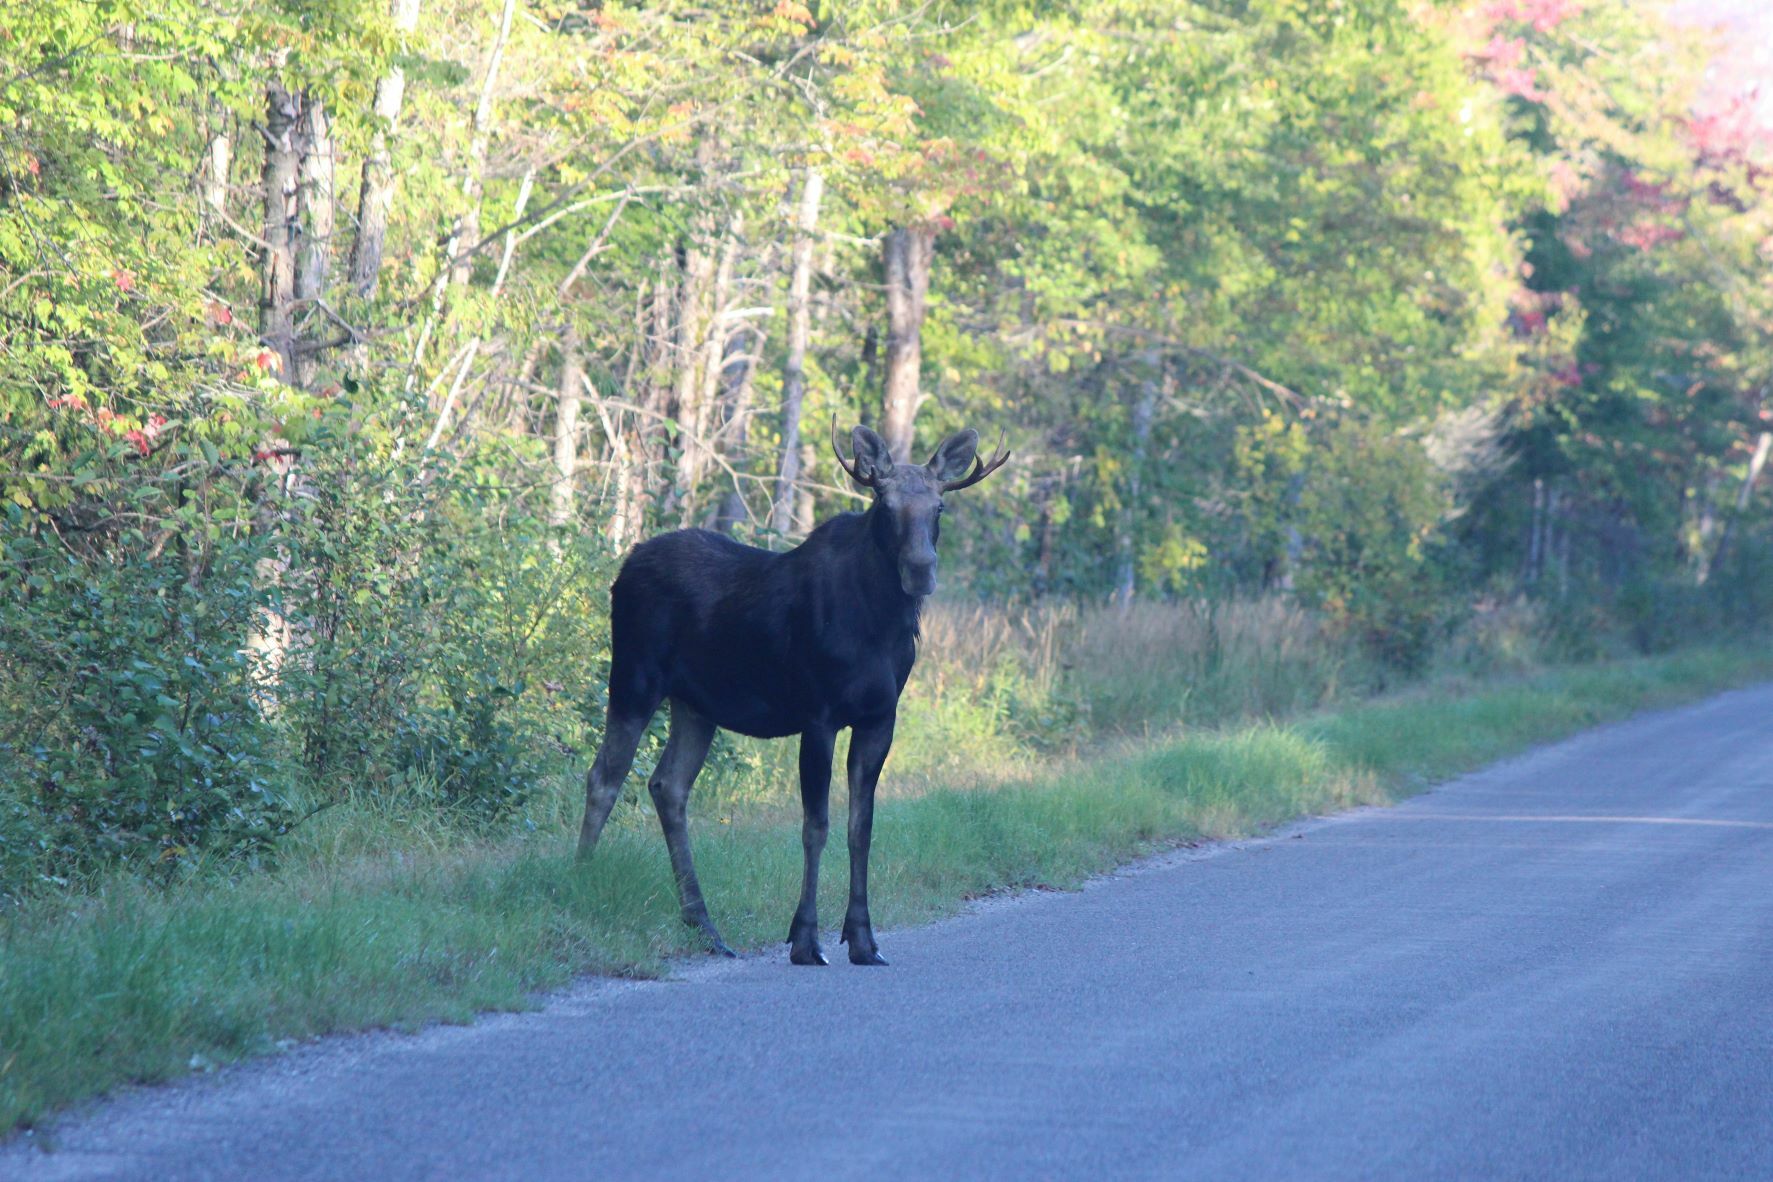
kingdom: Animalia
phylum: Chordata
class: Mammalia
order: Artiodactyla
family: Cervidae
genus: Alces
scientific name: Alces alces
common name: Moose
